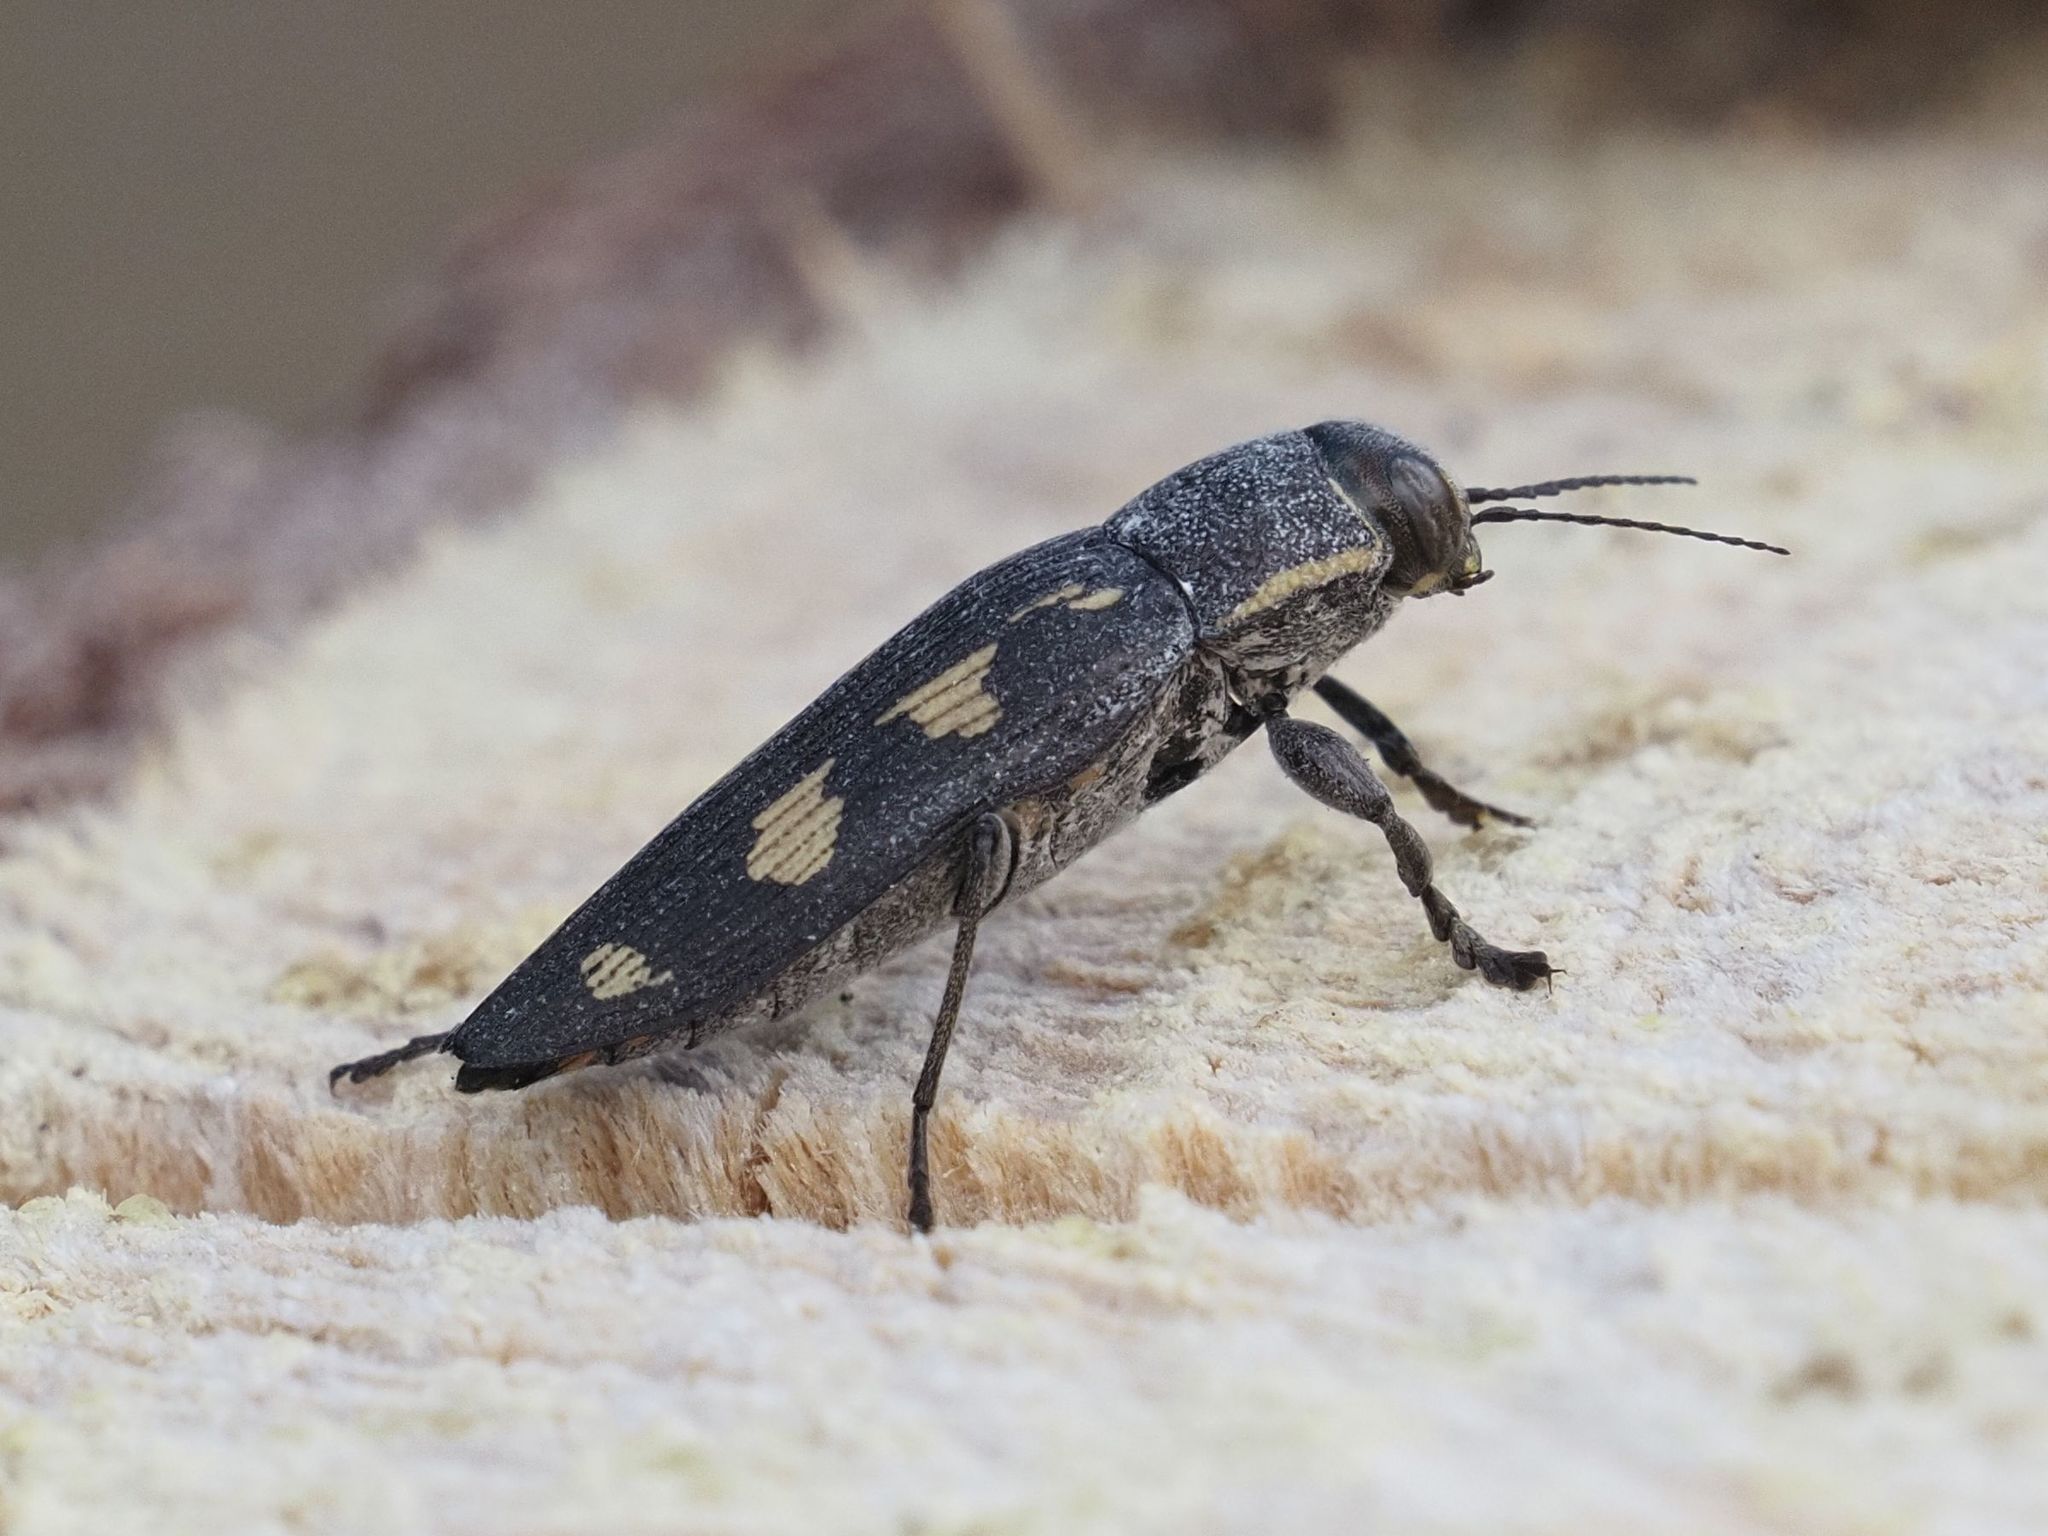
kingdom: Animalia
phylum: Arthropoda
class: Insecta
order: Coleoptera
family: Buprestidae
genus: Buprestis
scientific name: Buprestis novemmaculata
